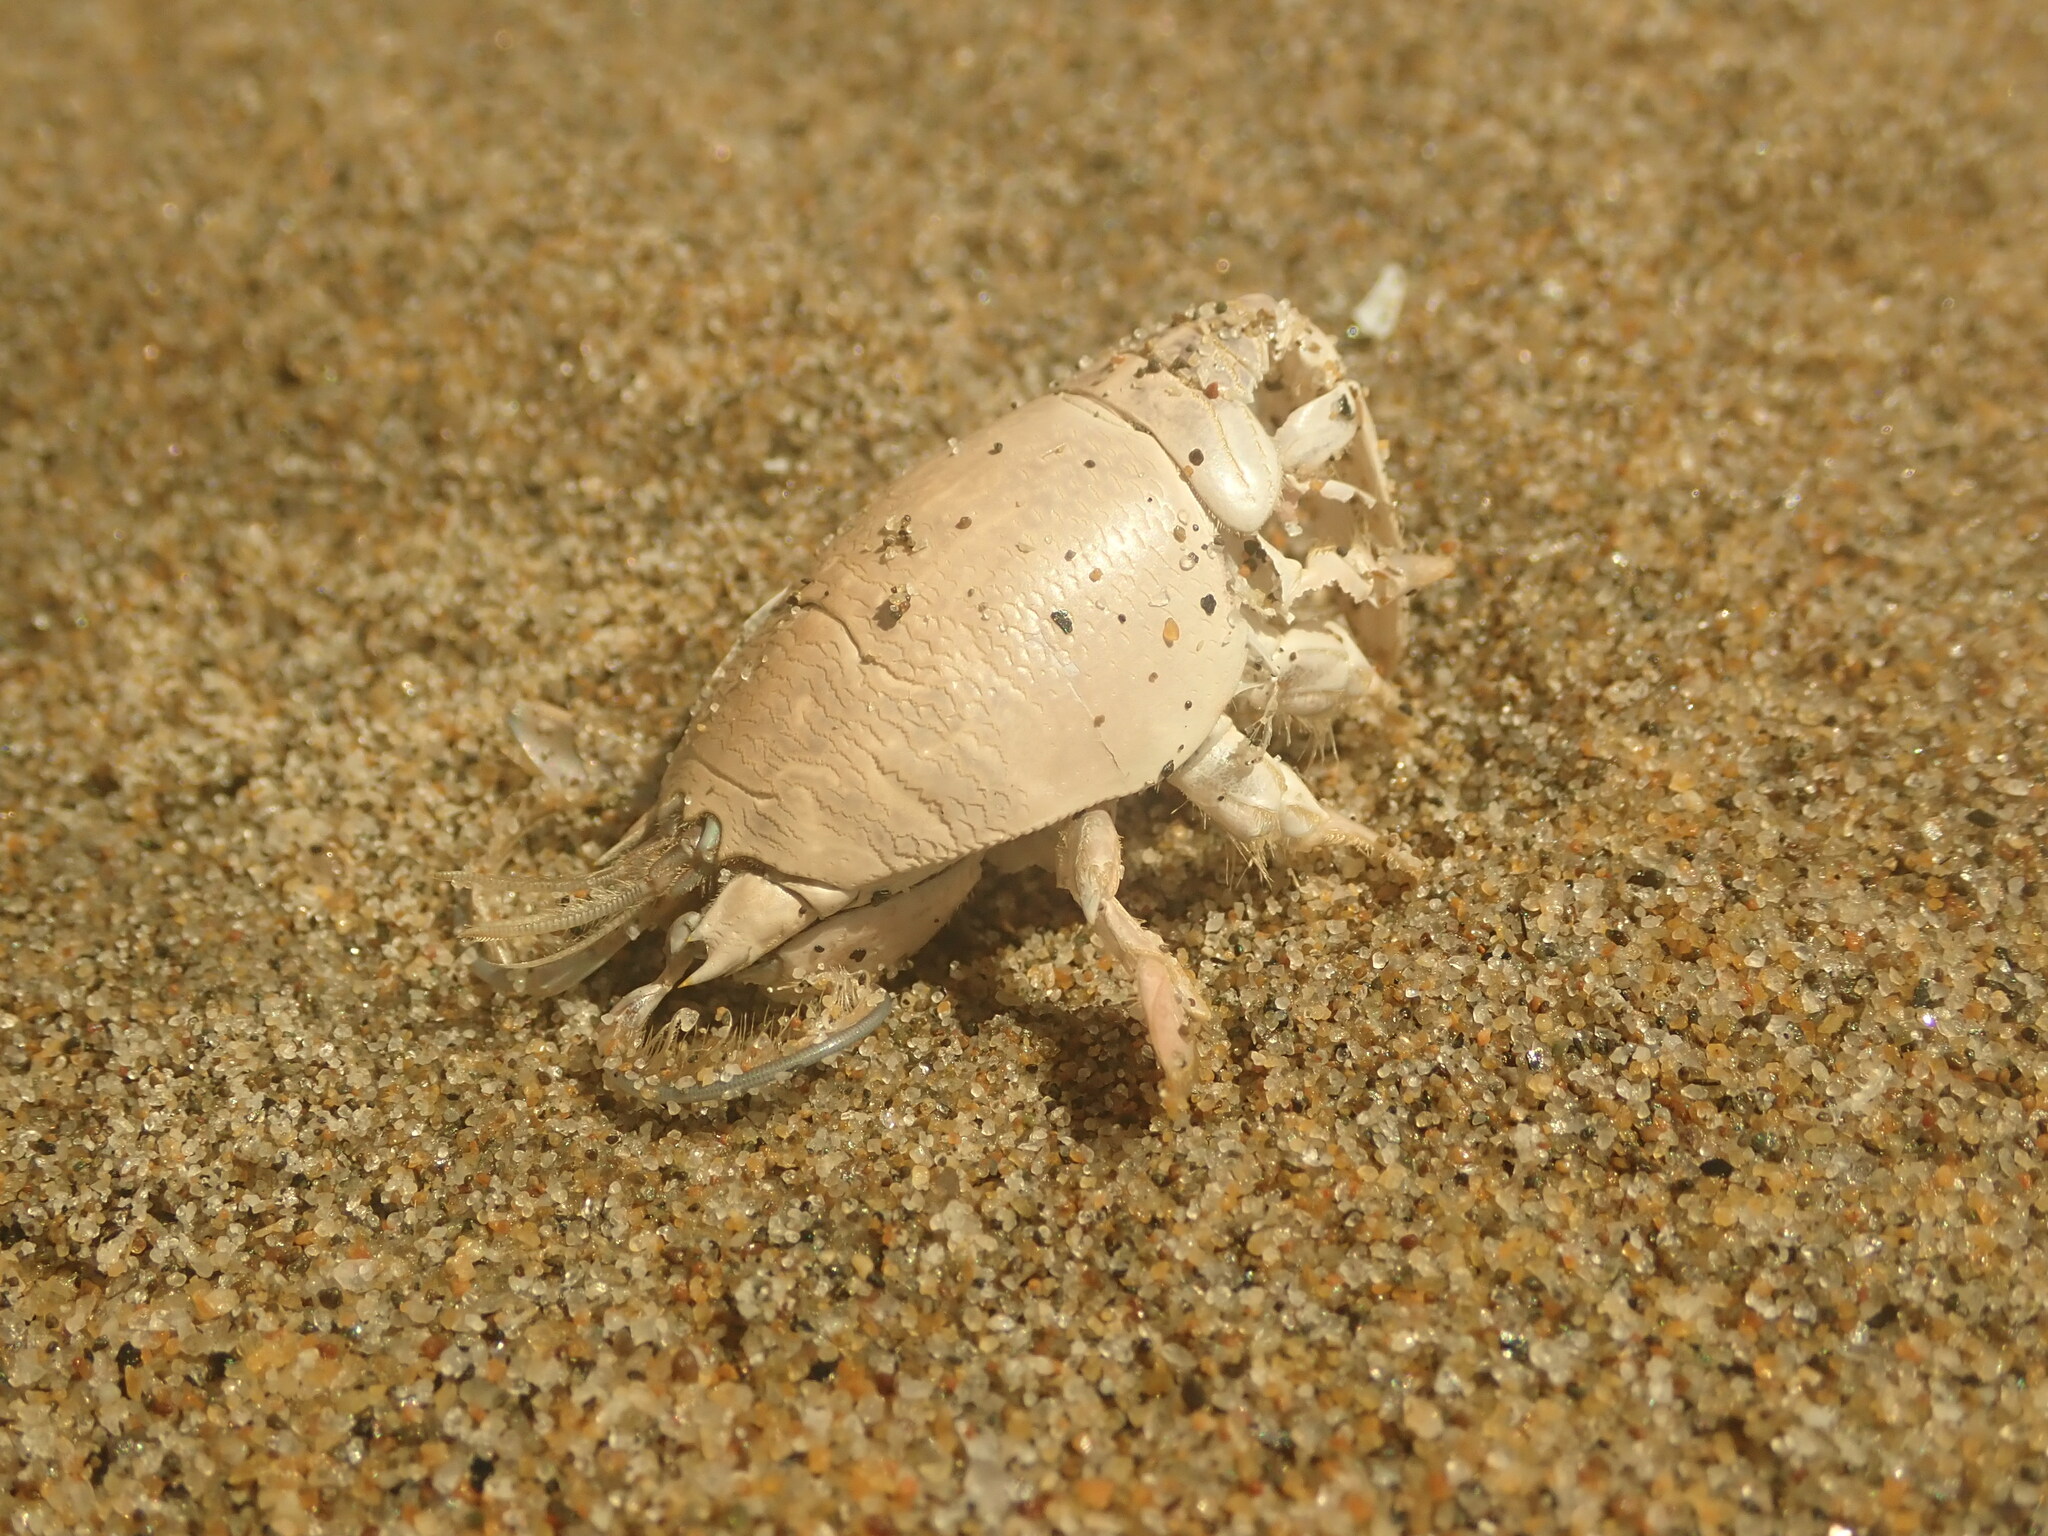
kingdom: Animalia
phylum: Arthropoda
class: Malacostraca
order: Decapoda
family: Hippidae
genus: Emerita
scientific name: Emerita analoga
